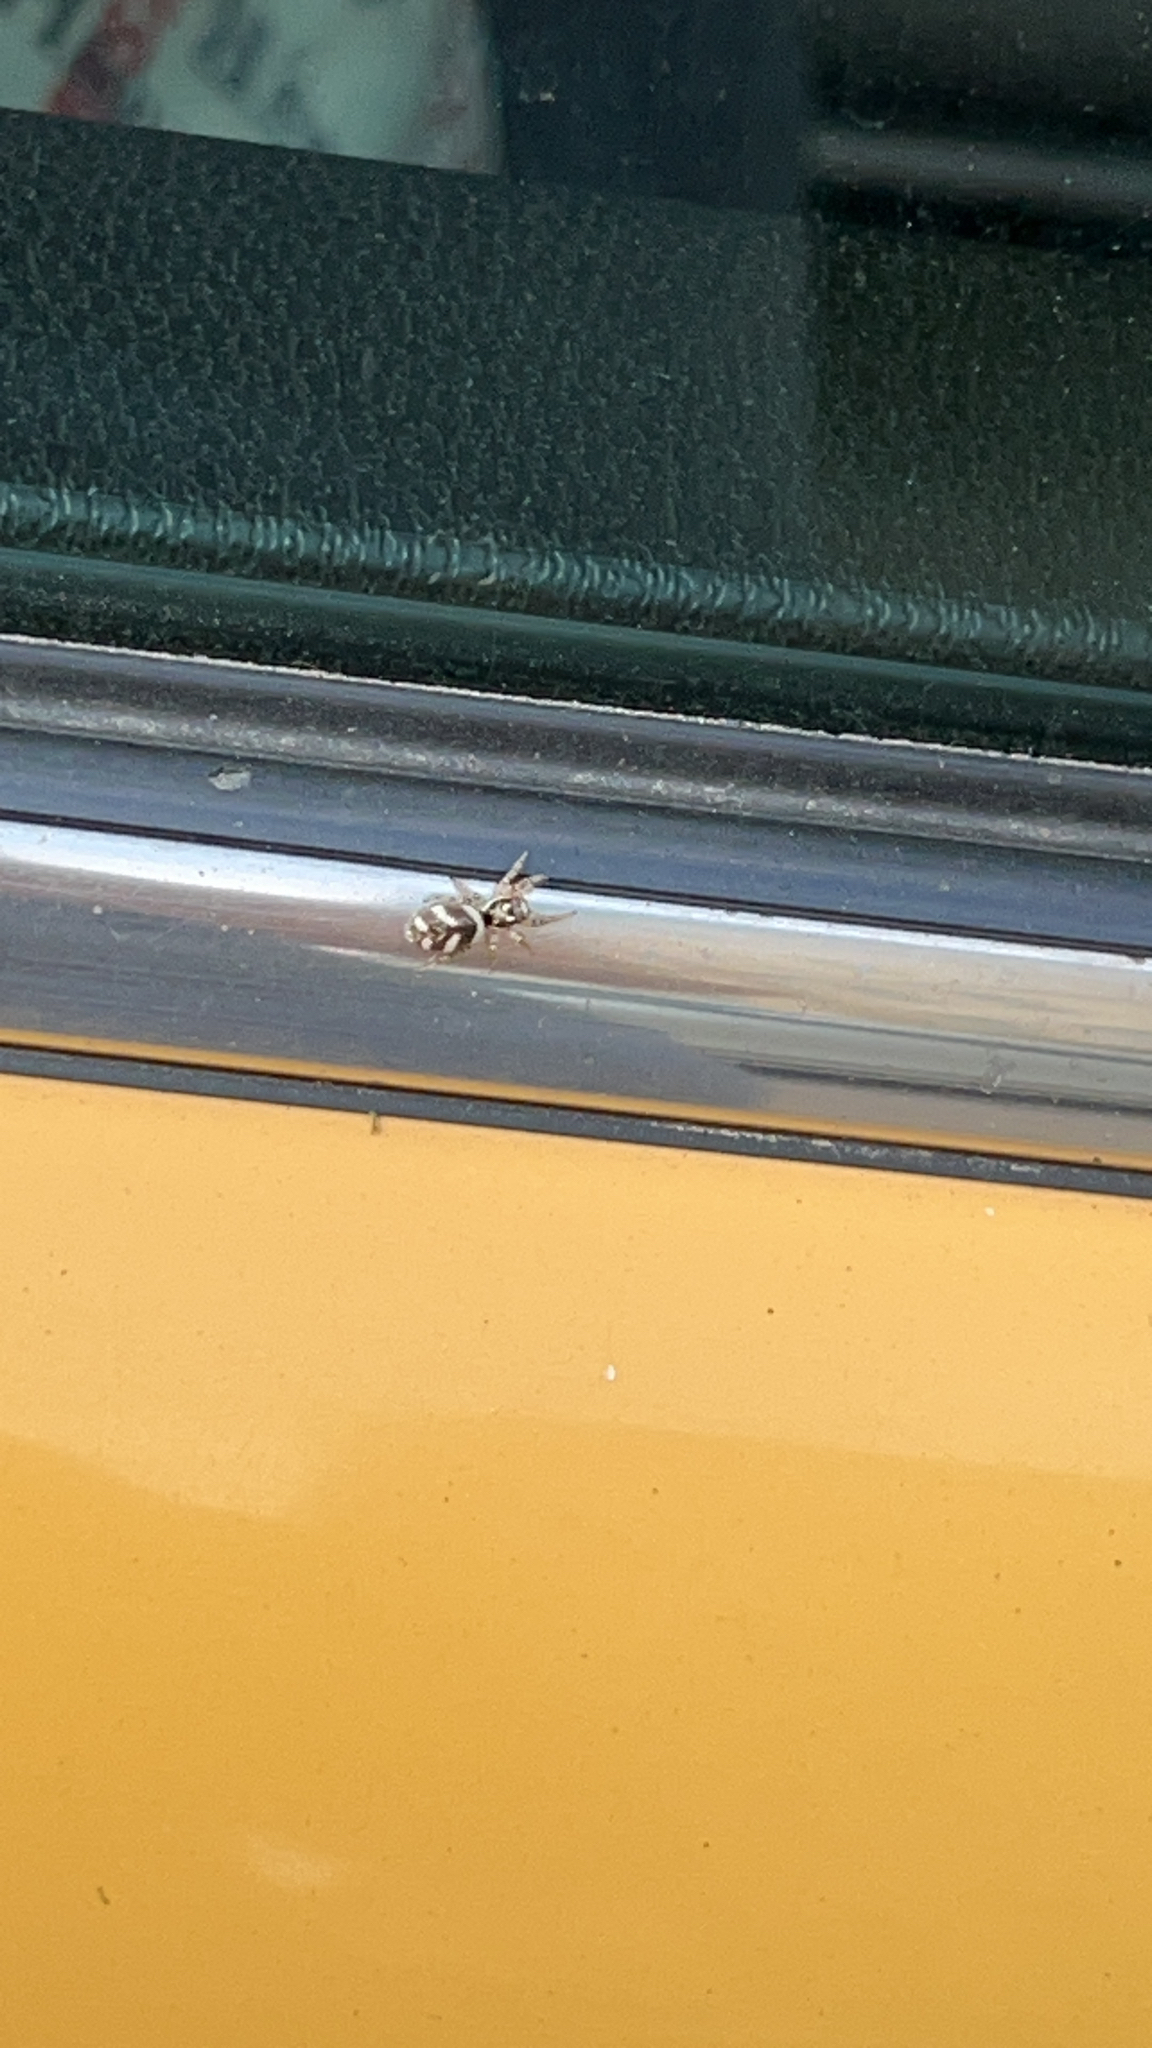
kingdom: Animalia
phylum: Arthropoda
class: Arachnida
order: Araneae
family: Salticidae
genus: Salticus
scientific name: Salticus scenicus
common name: Zebra jumper
